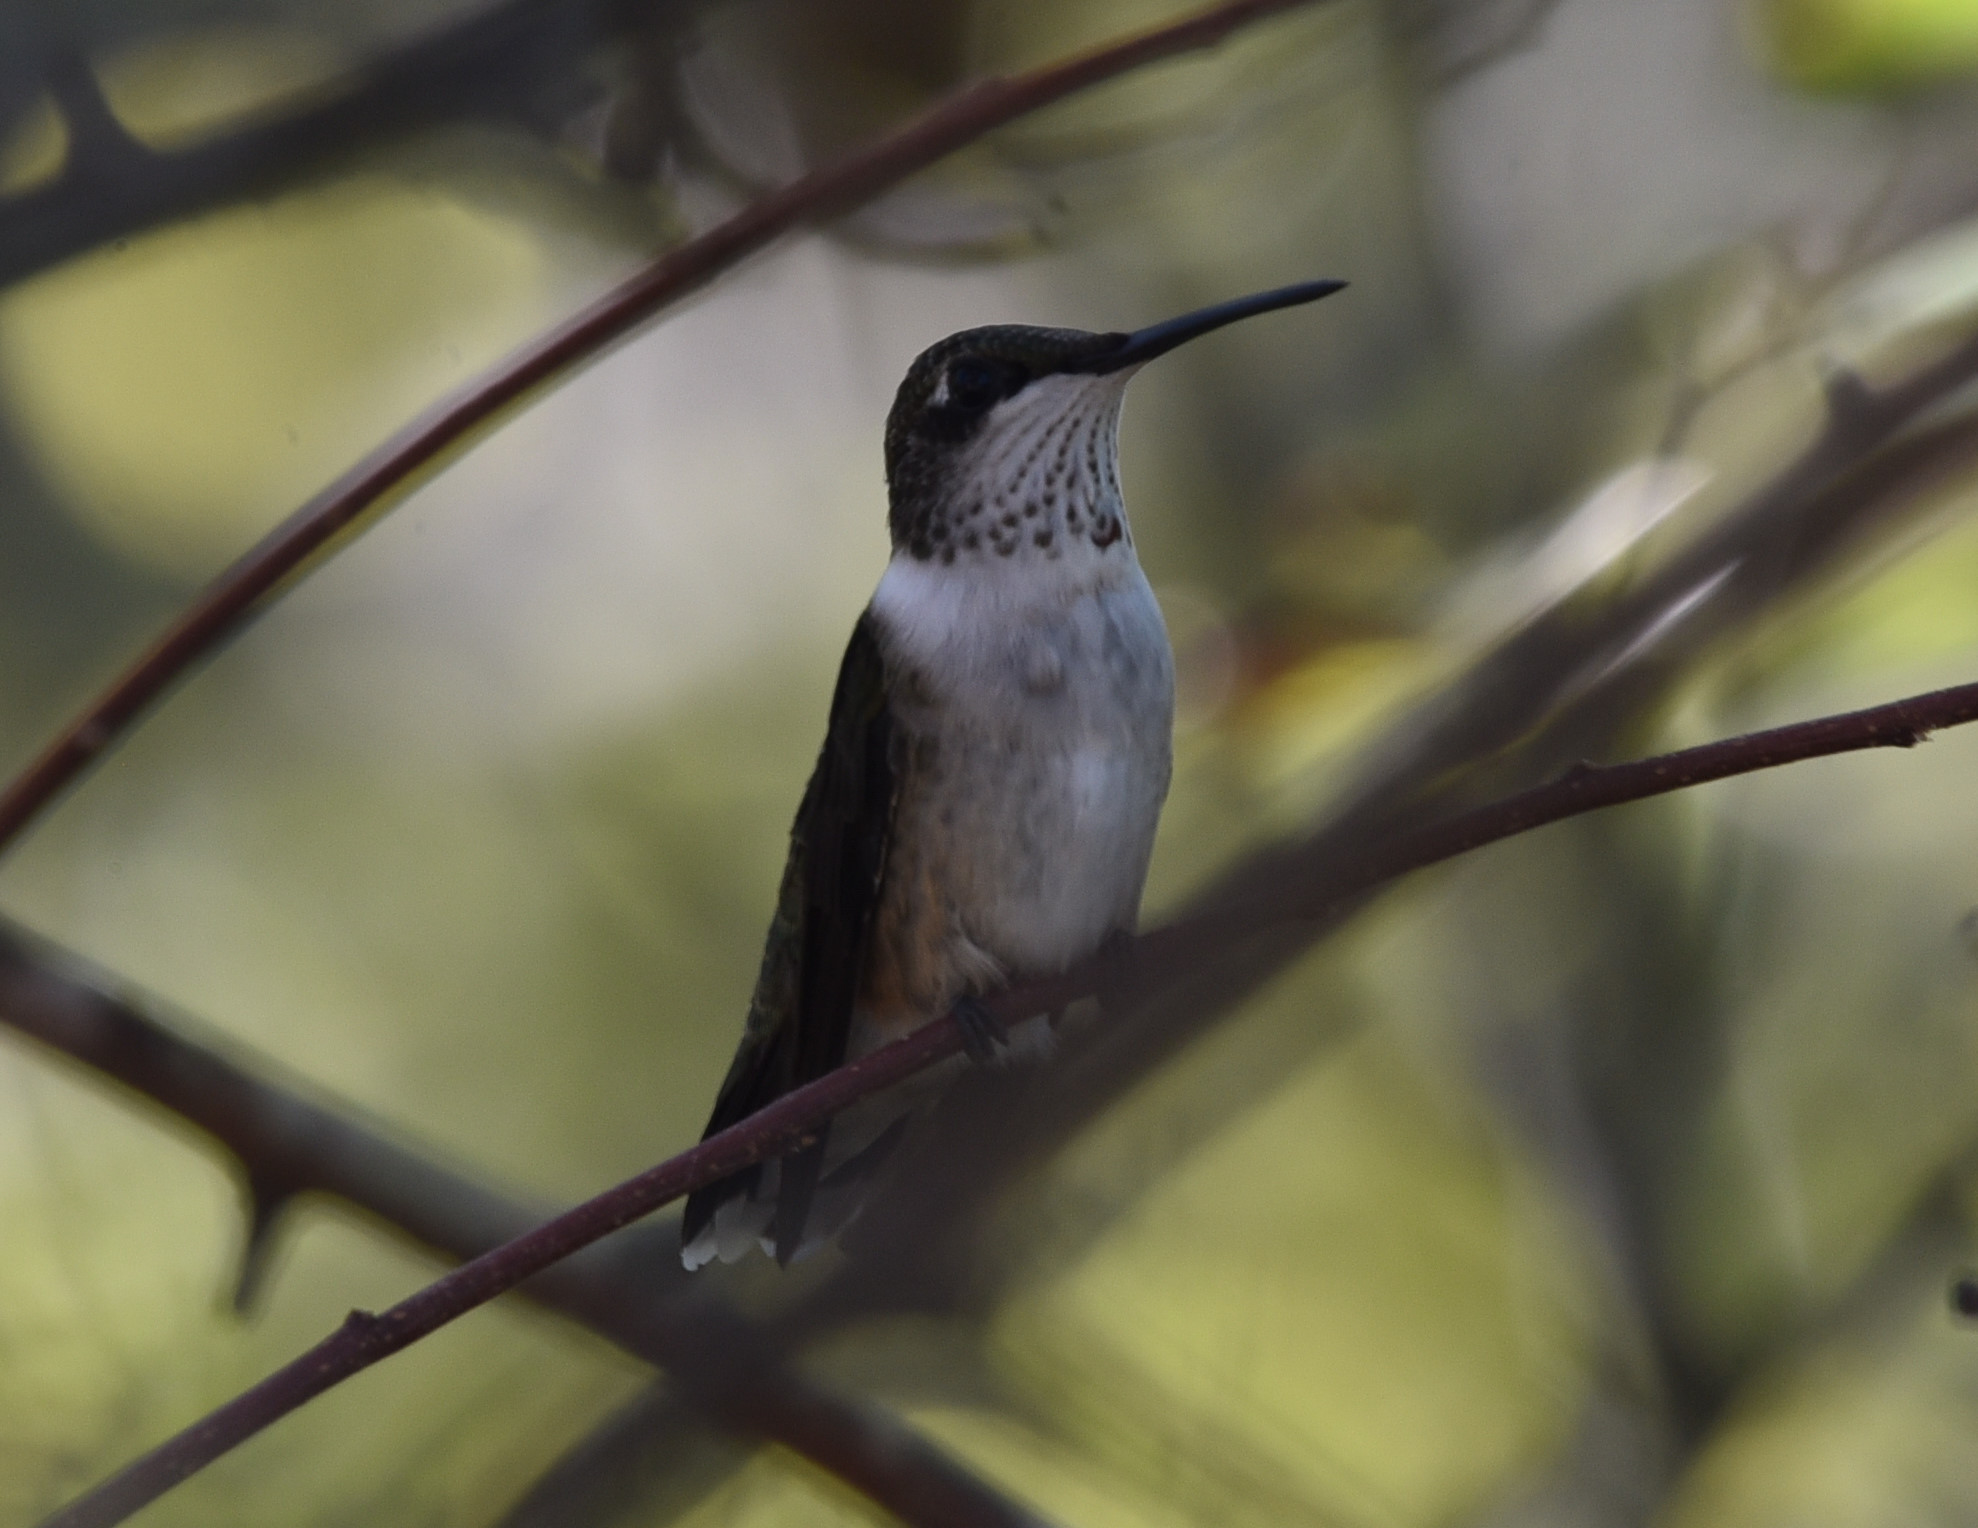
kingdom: Animalia
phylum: Chordata
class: Aves
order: Apodiformes
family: Trochilidae
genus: Archilochus
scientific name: Archilochus colubris
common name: Ruby-throated hummingbird
